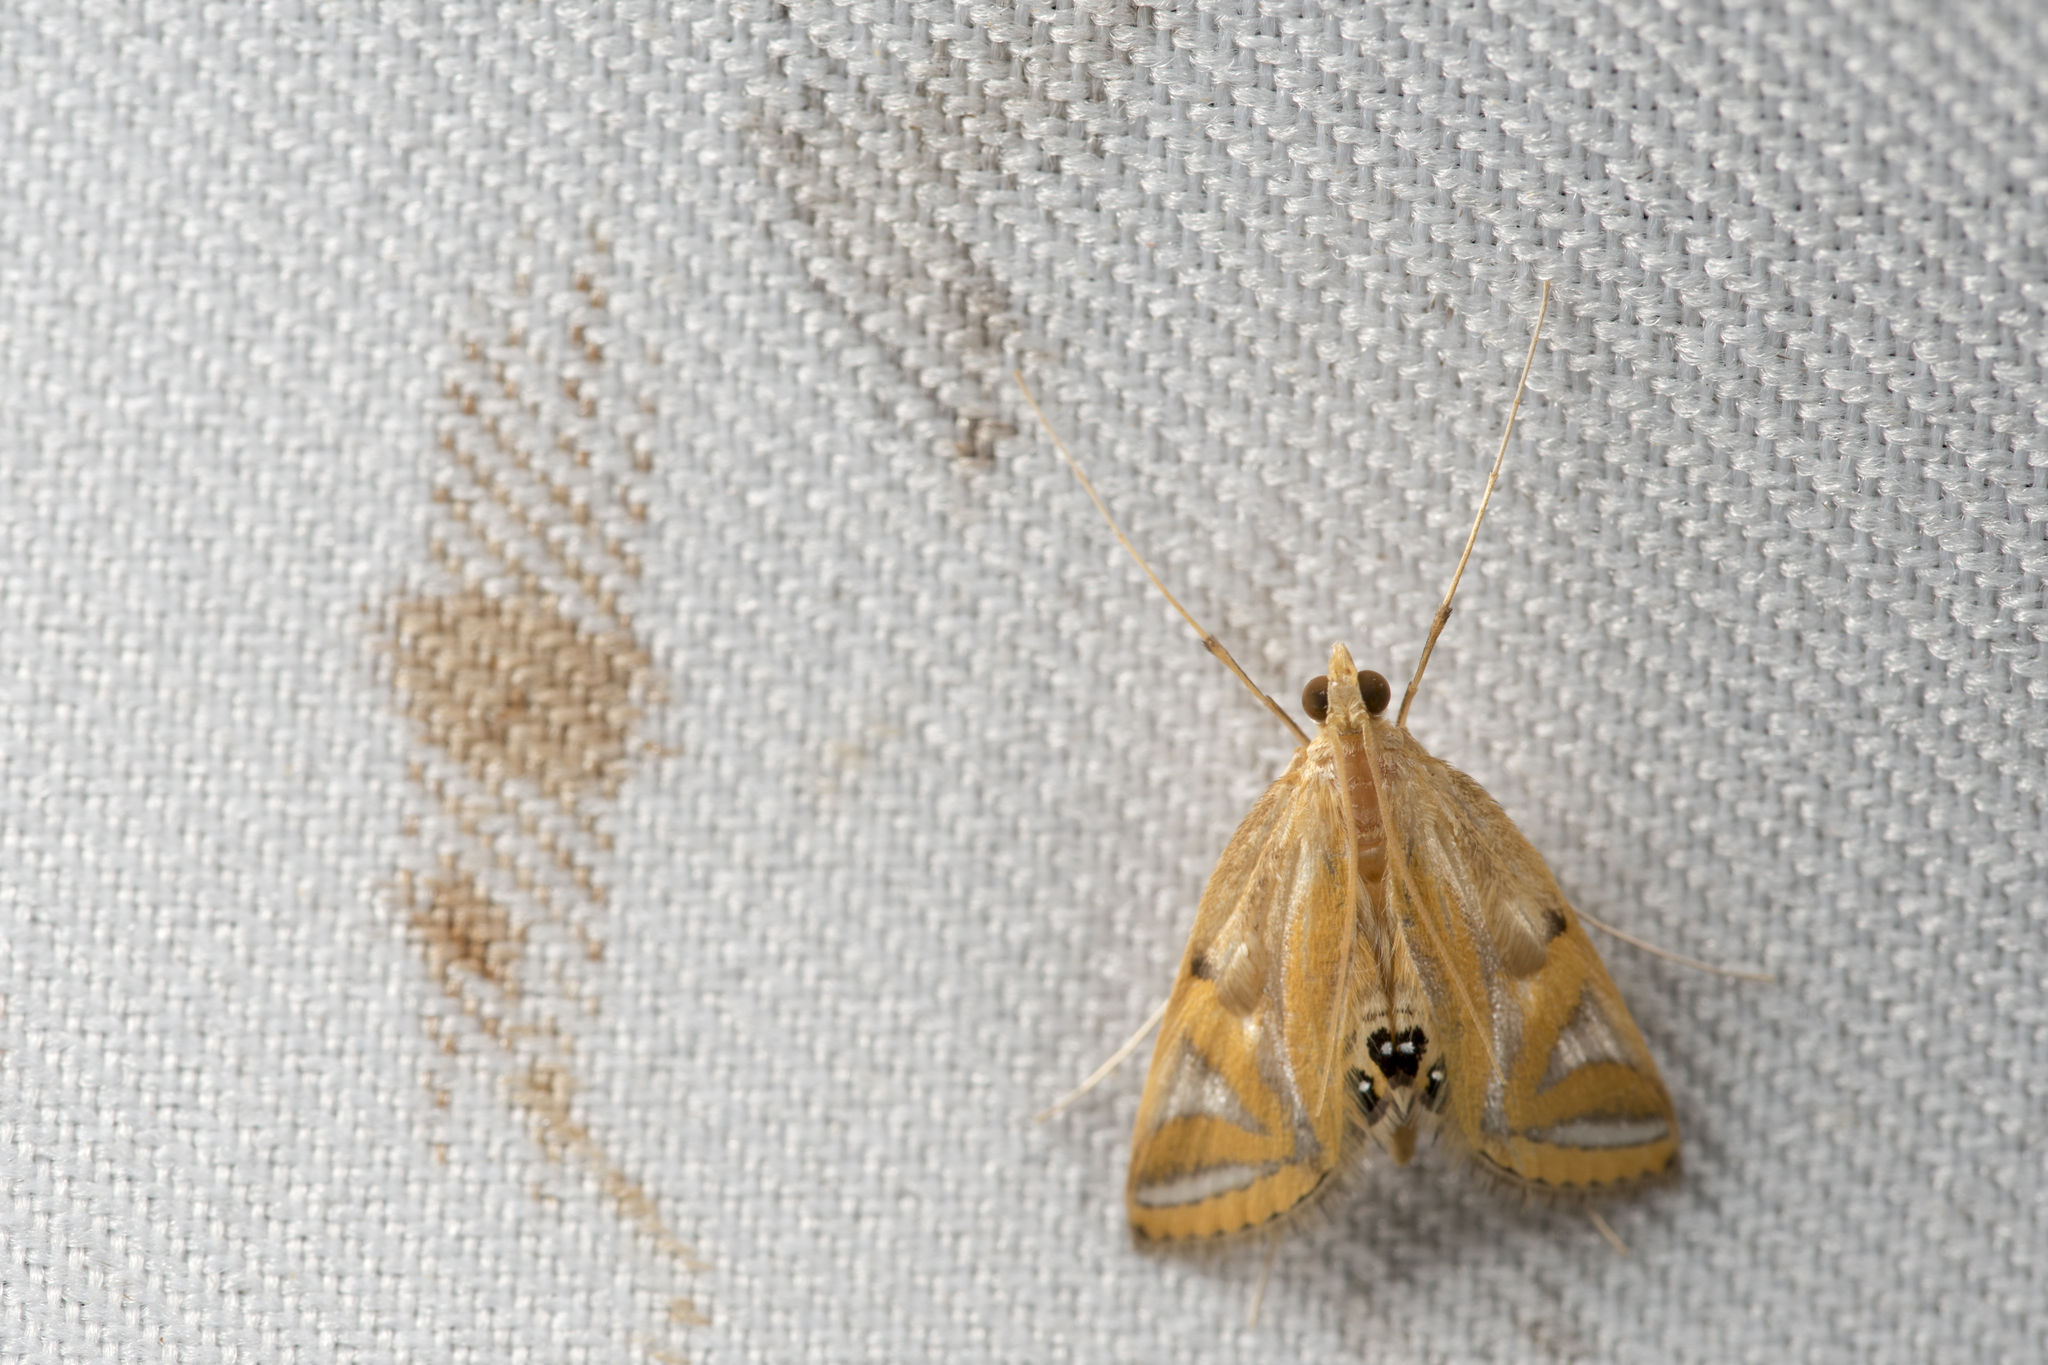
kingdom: Animalia
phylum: Arthropoda
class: Insecta
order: Lepidoptera
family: Crambidae
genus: Eoophyla
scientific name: Eoophyla conjunctalis
